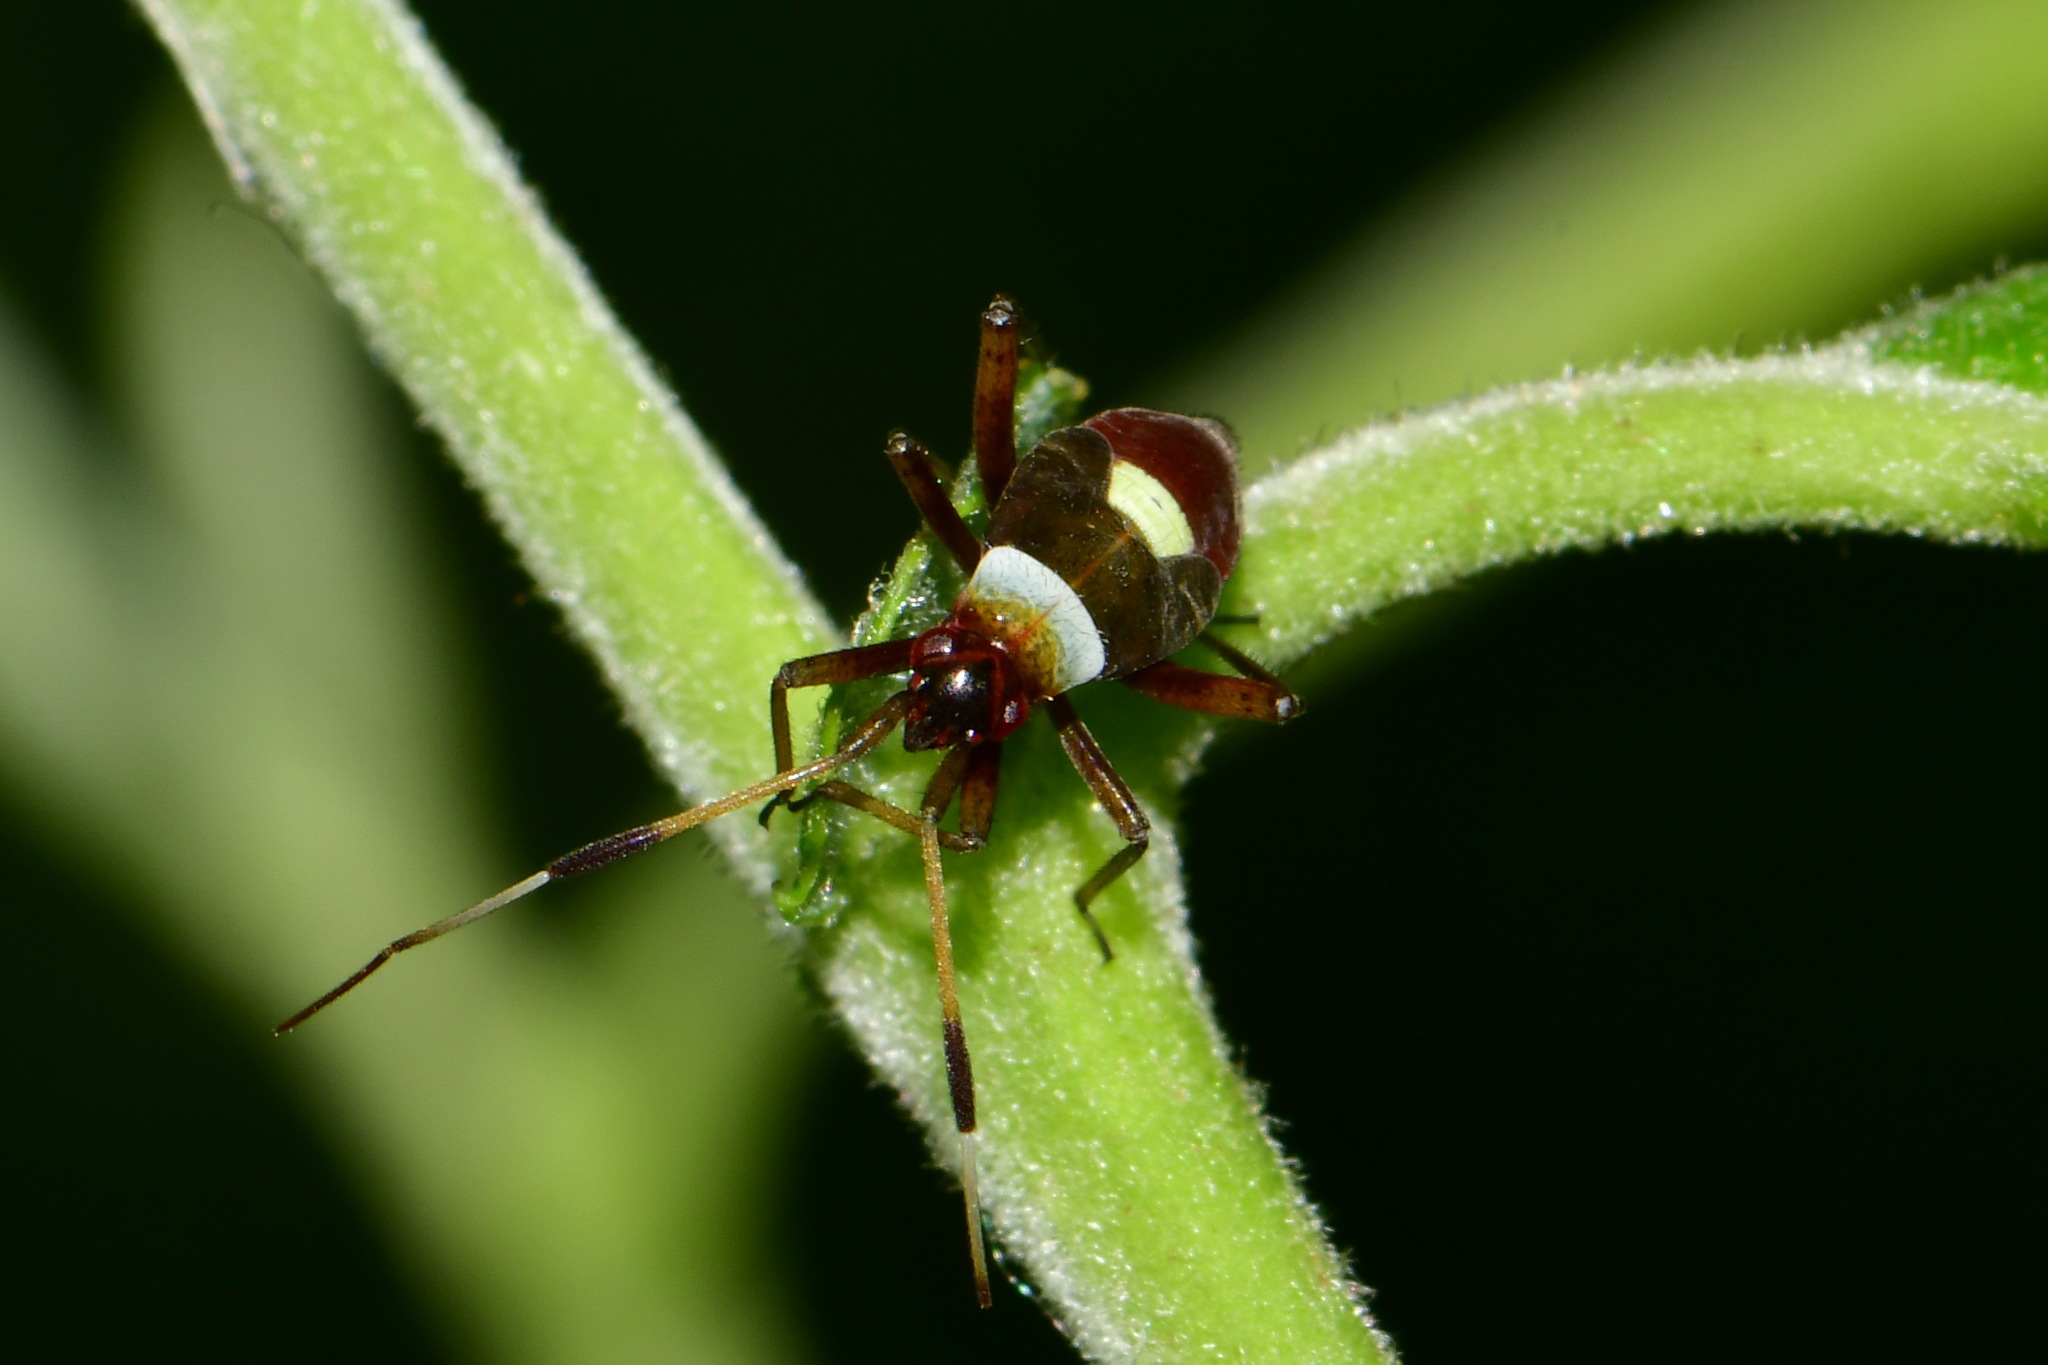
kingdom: Animalia
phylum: Arthropoda
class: Insecta
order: Hemiptera
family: Miridae
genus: Closterotomus
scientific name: Closterotomus biclavatus
